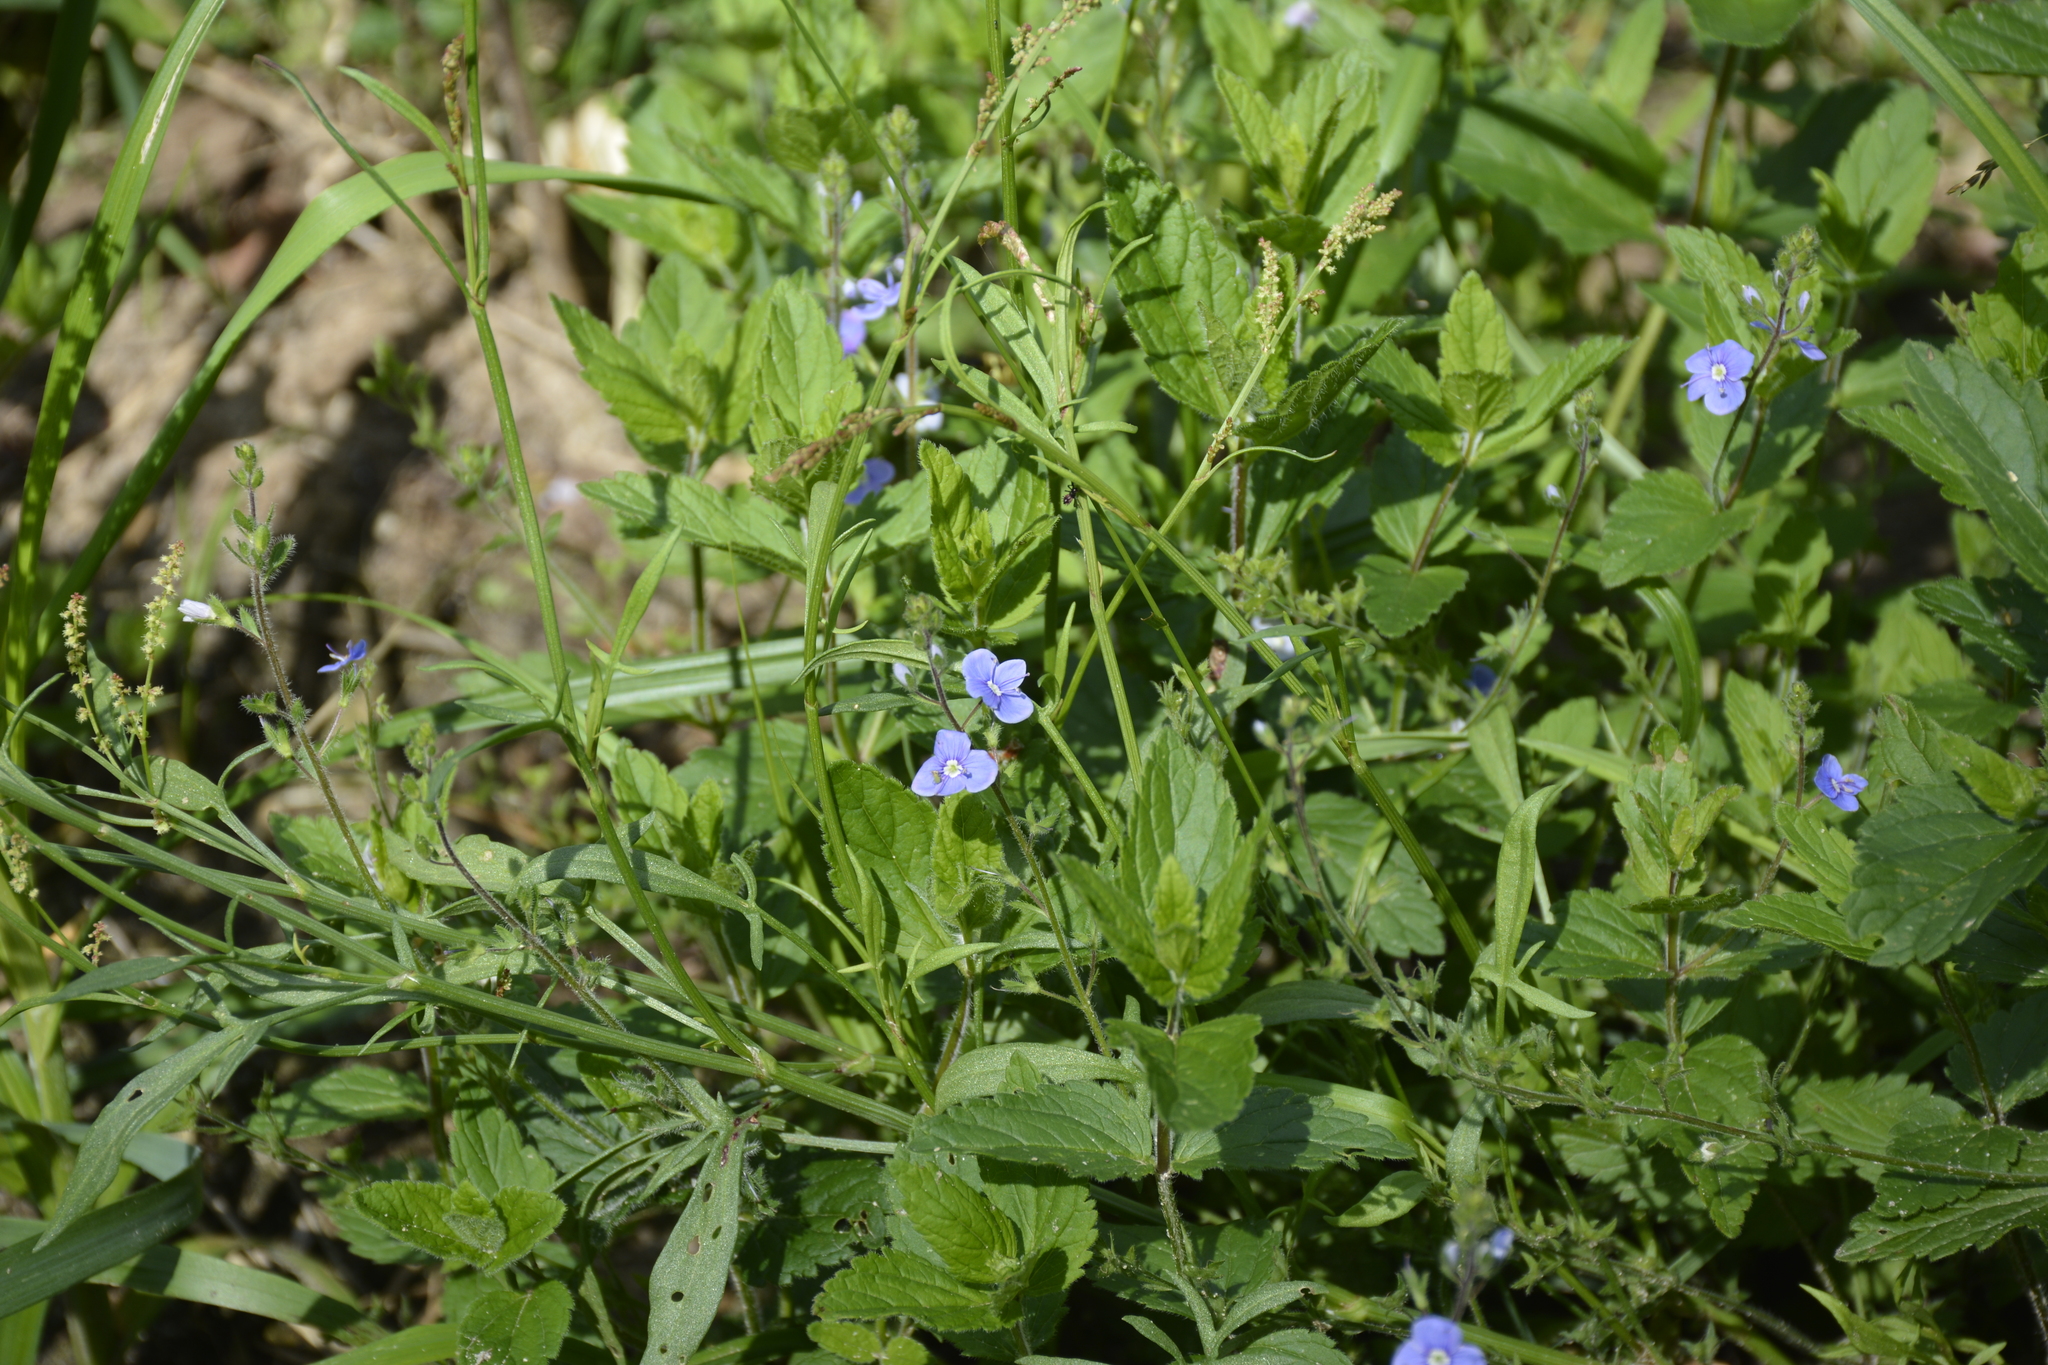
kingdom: Plantae
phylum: Tracheophyta
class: Magnoliopsida
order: Lamiales
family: Plantaginaceae
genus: Veronica
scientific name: Veronica chamaedrys
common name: Germander speedwell
